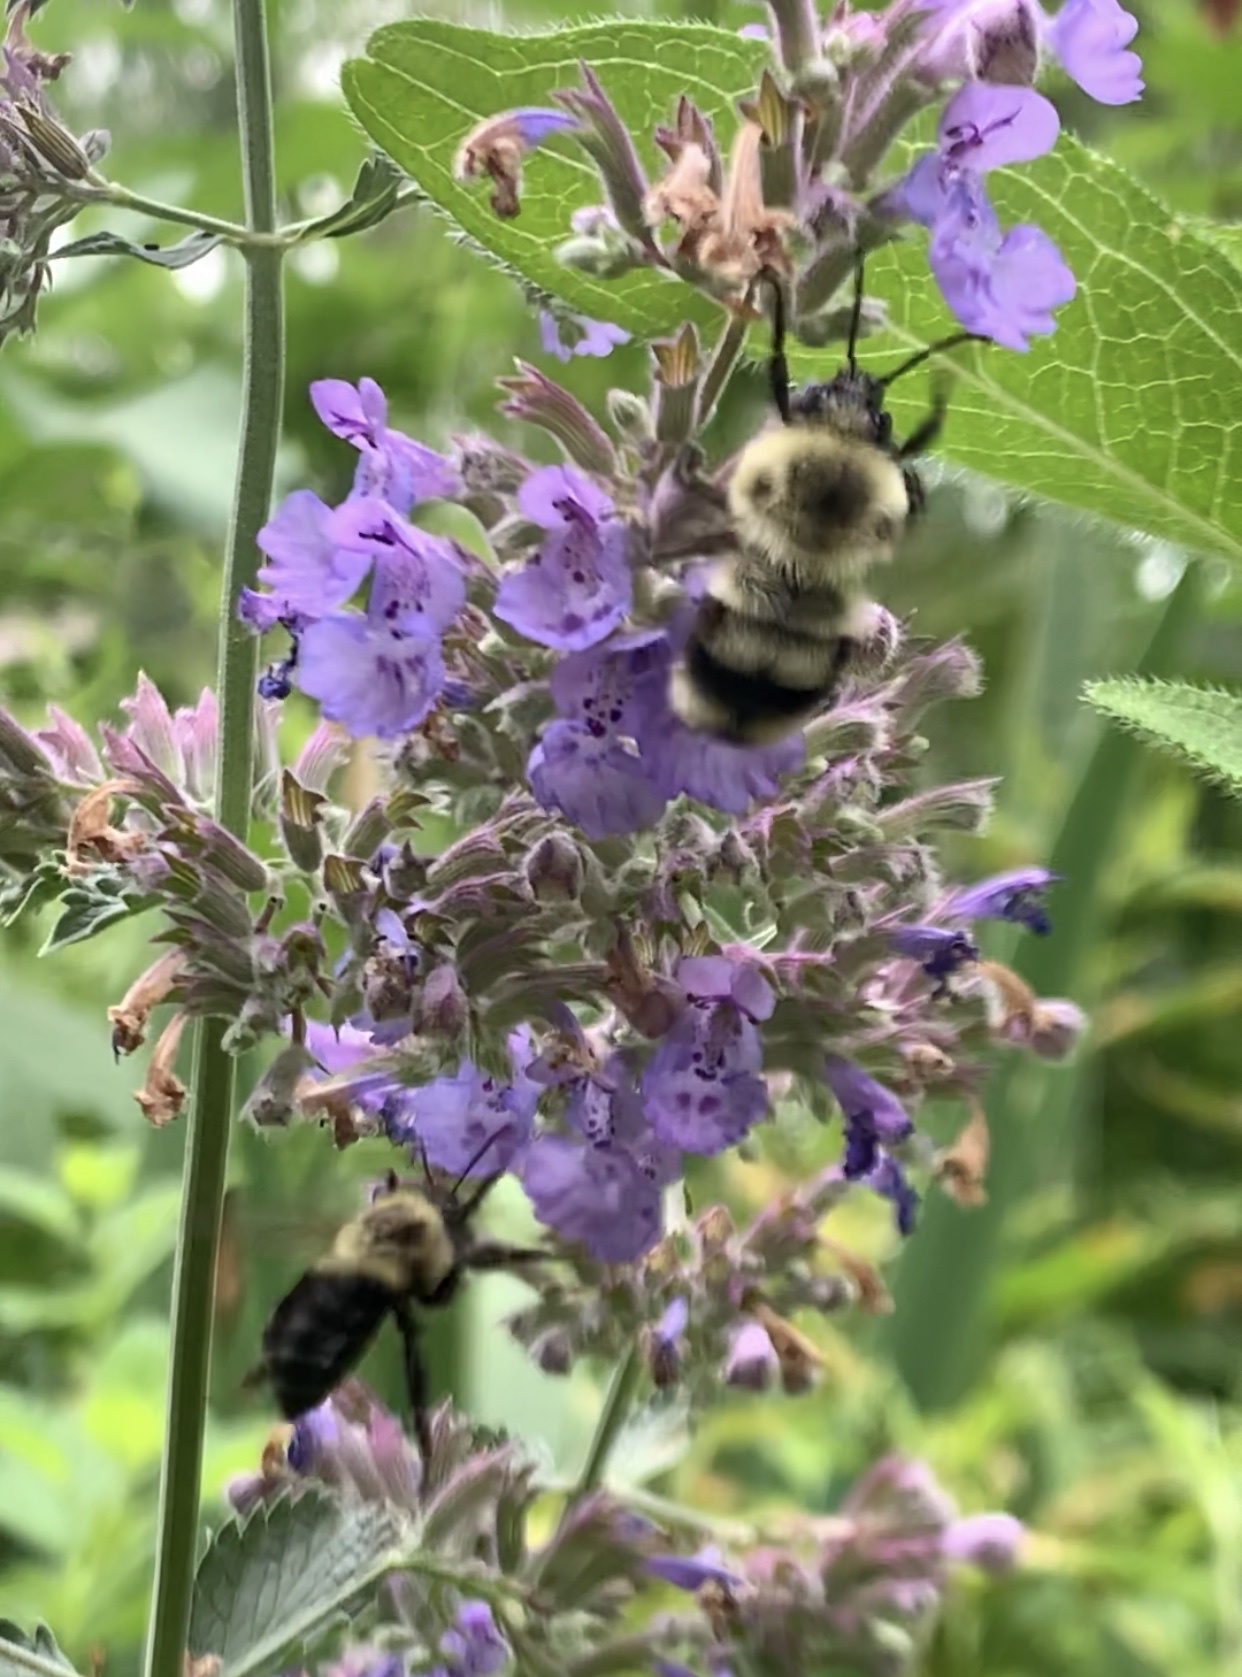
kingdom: Animalia
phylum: Arthropoda
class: Insecta
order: Hymenoptera
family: Apidae
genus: Bombus
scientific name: Bombus bimaculatus
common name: Two-spotted bumble bee
